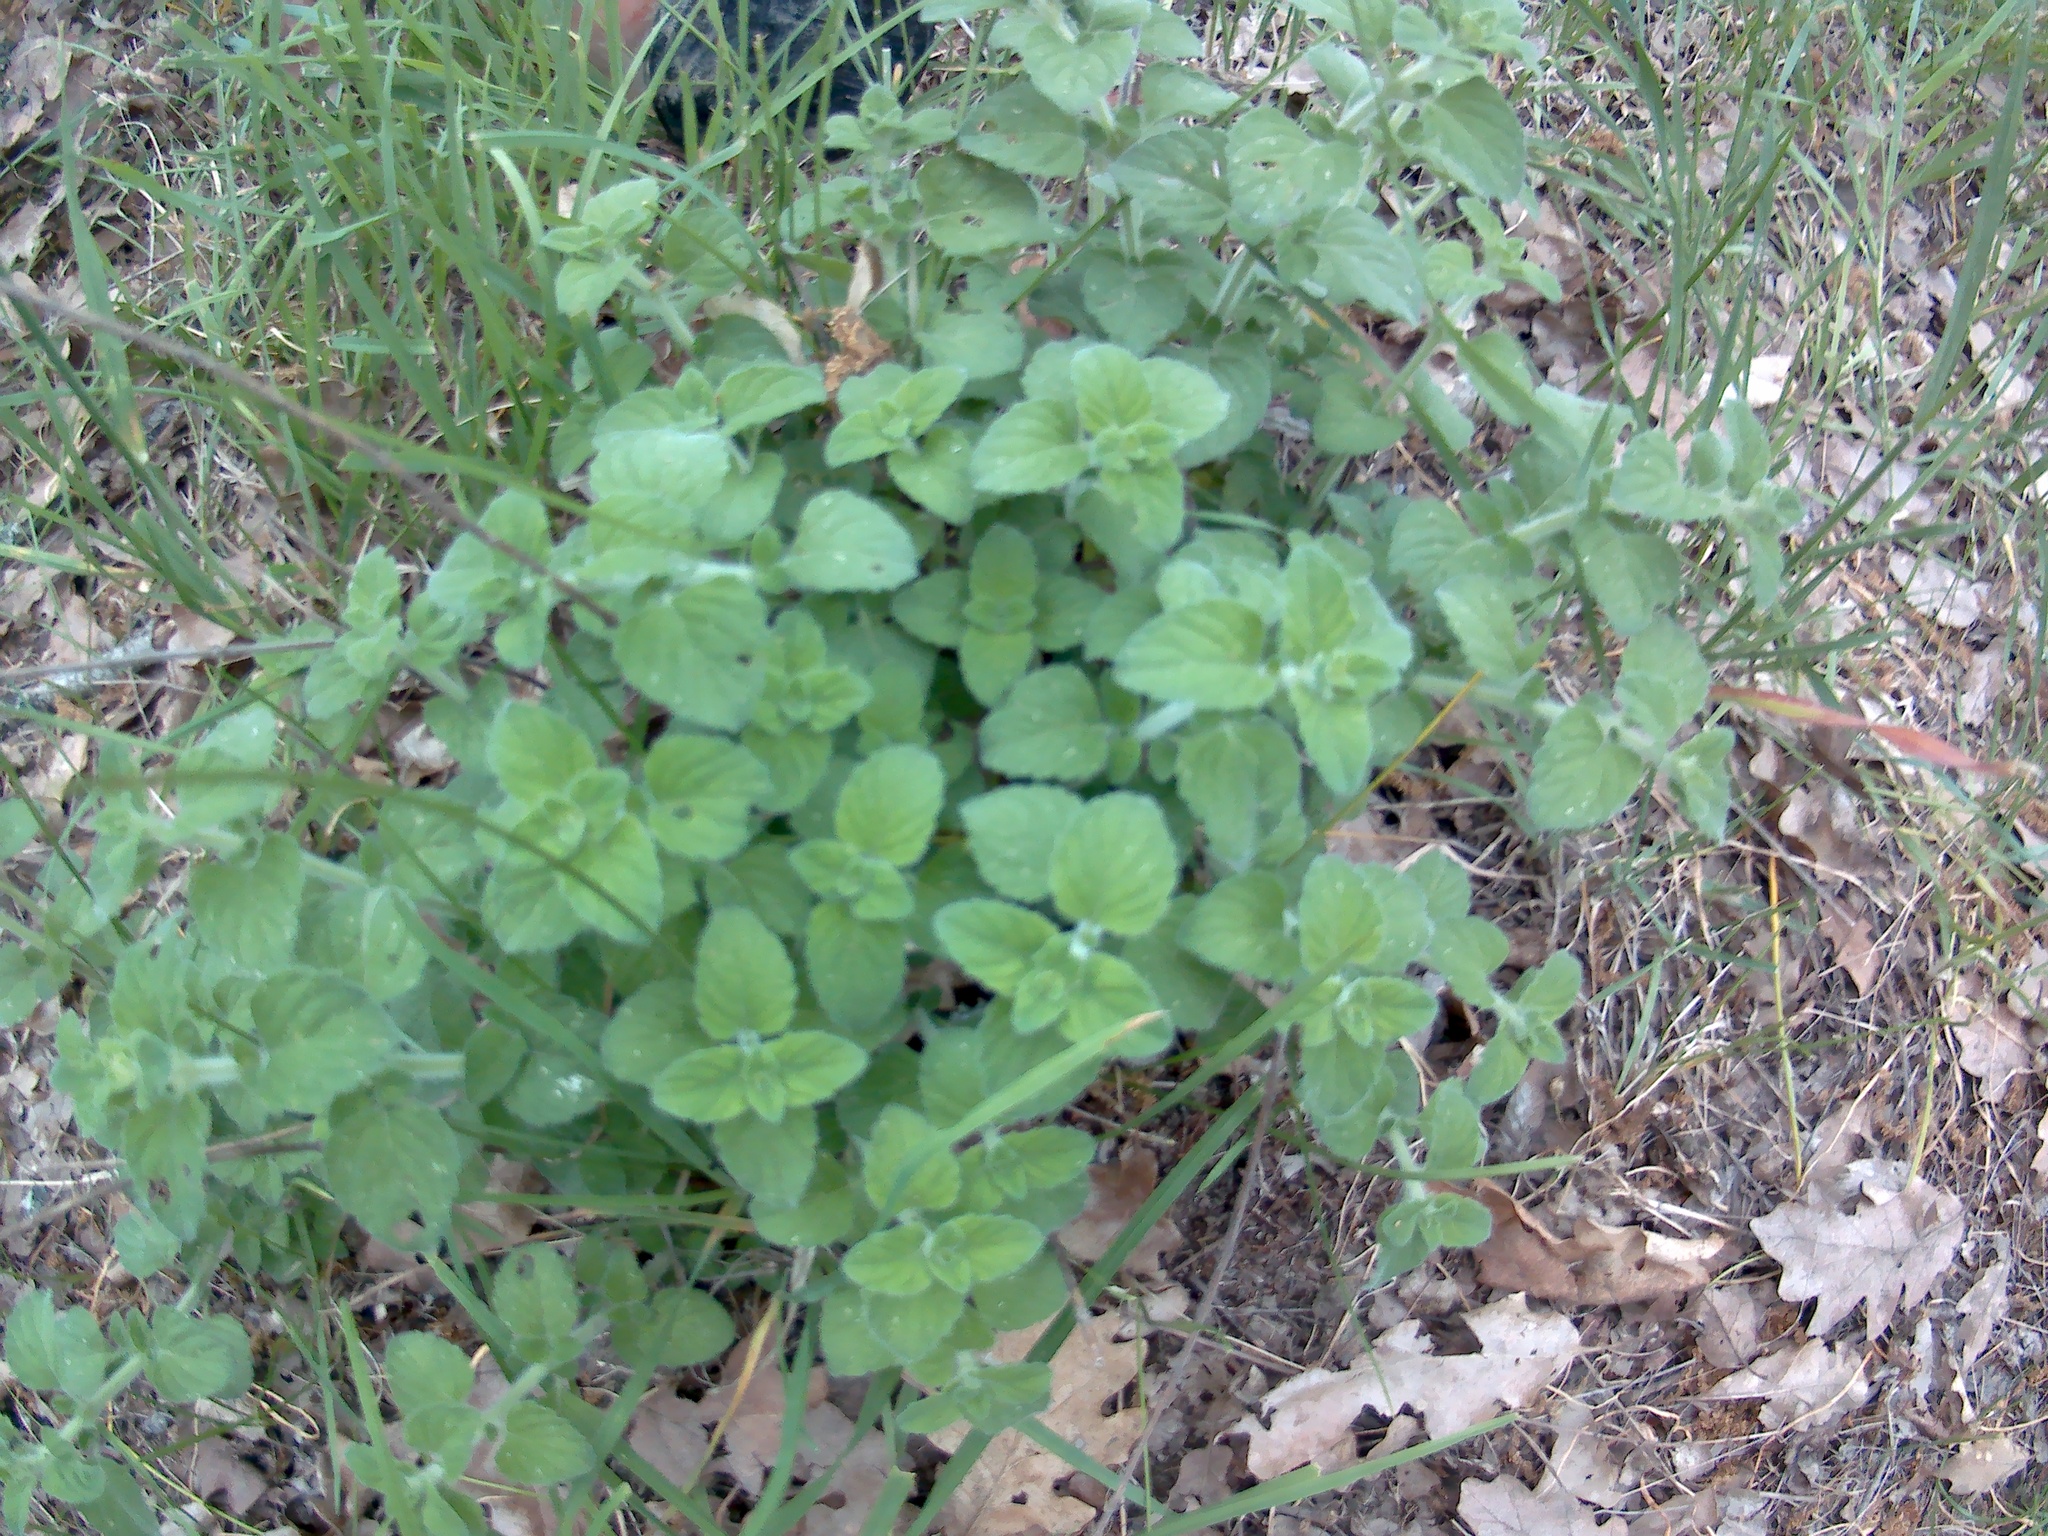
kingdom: Plantae
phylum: Tracheophyta
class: Magnoliopsida
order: Lamiales
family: Lamiaceae
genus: Clinopodium
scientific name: Clinopodium vulgare
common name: Wild basil
